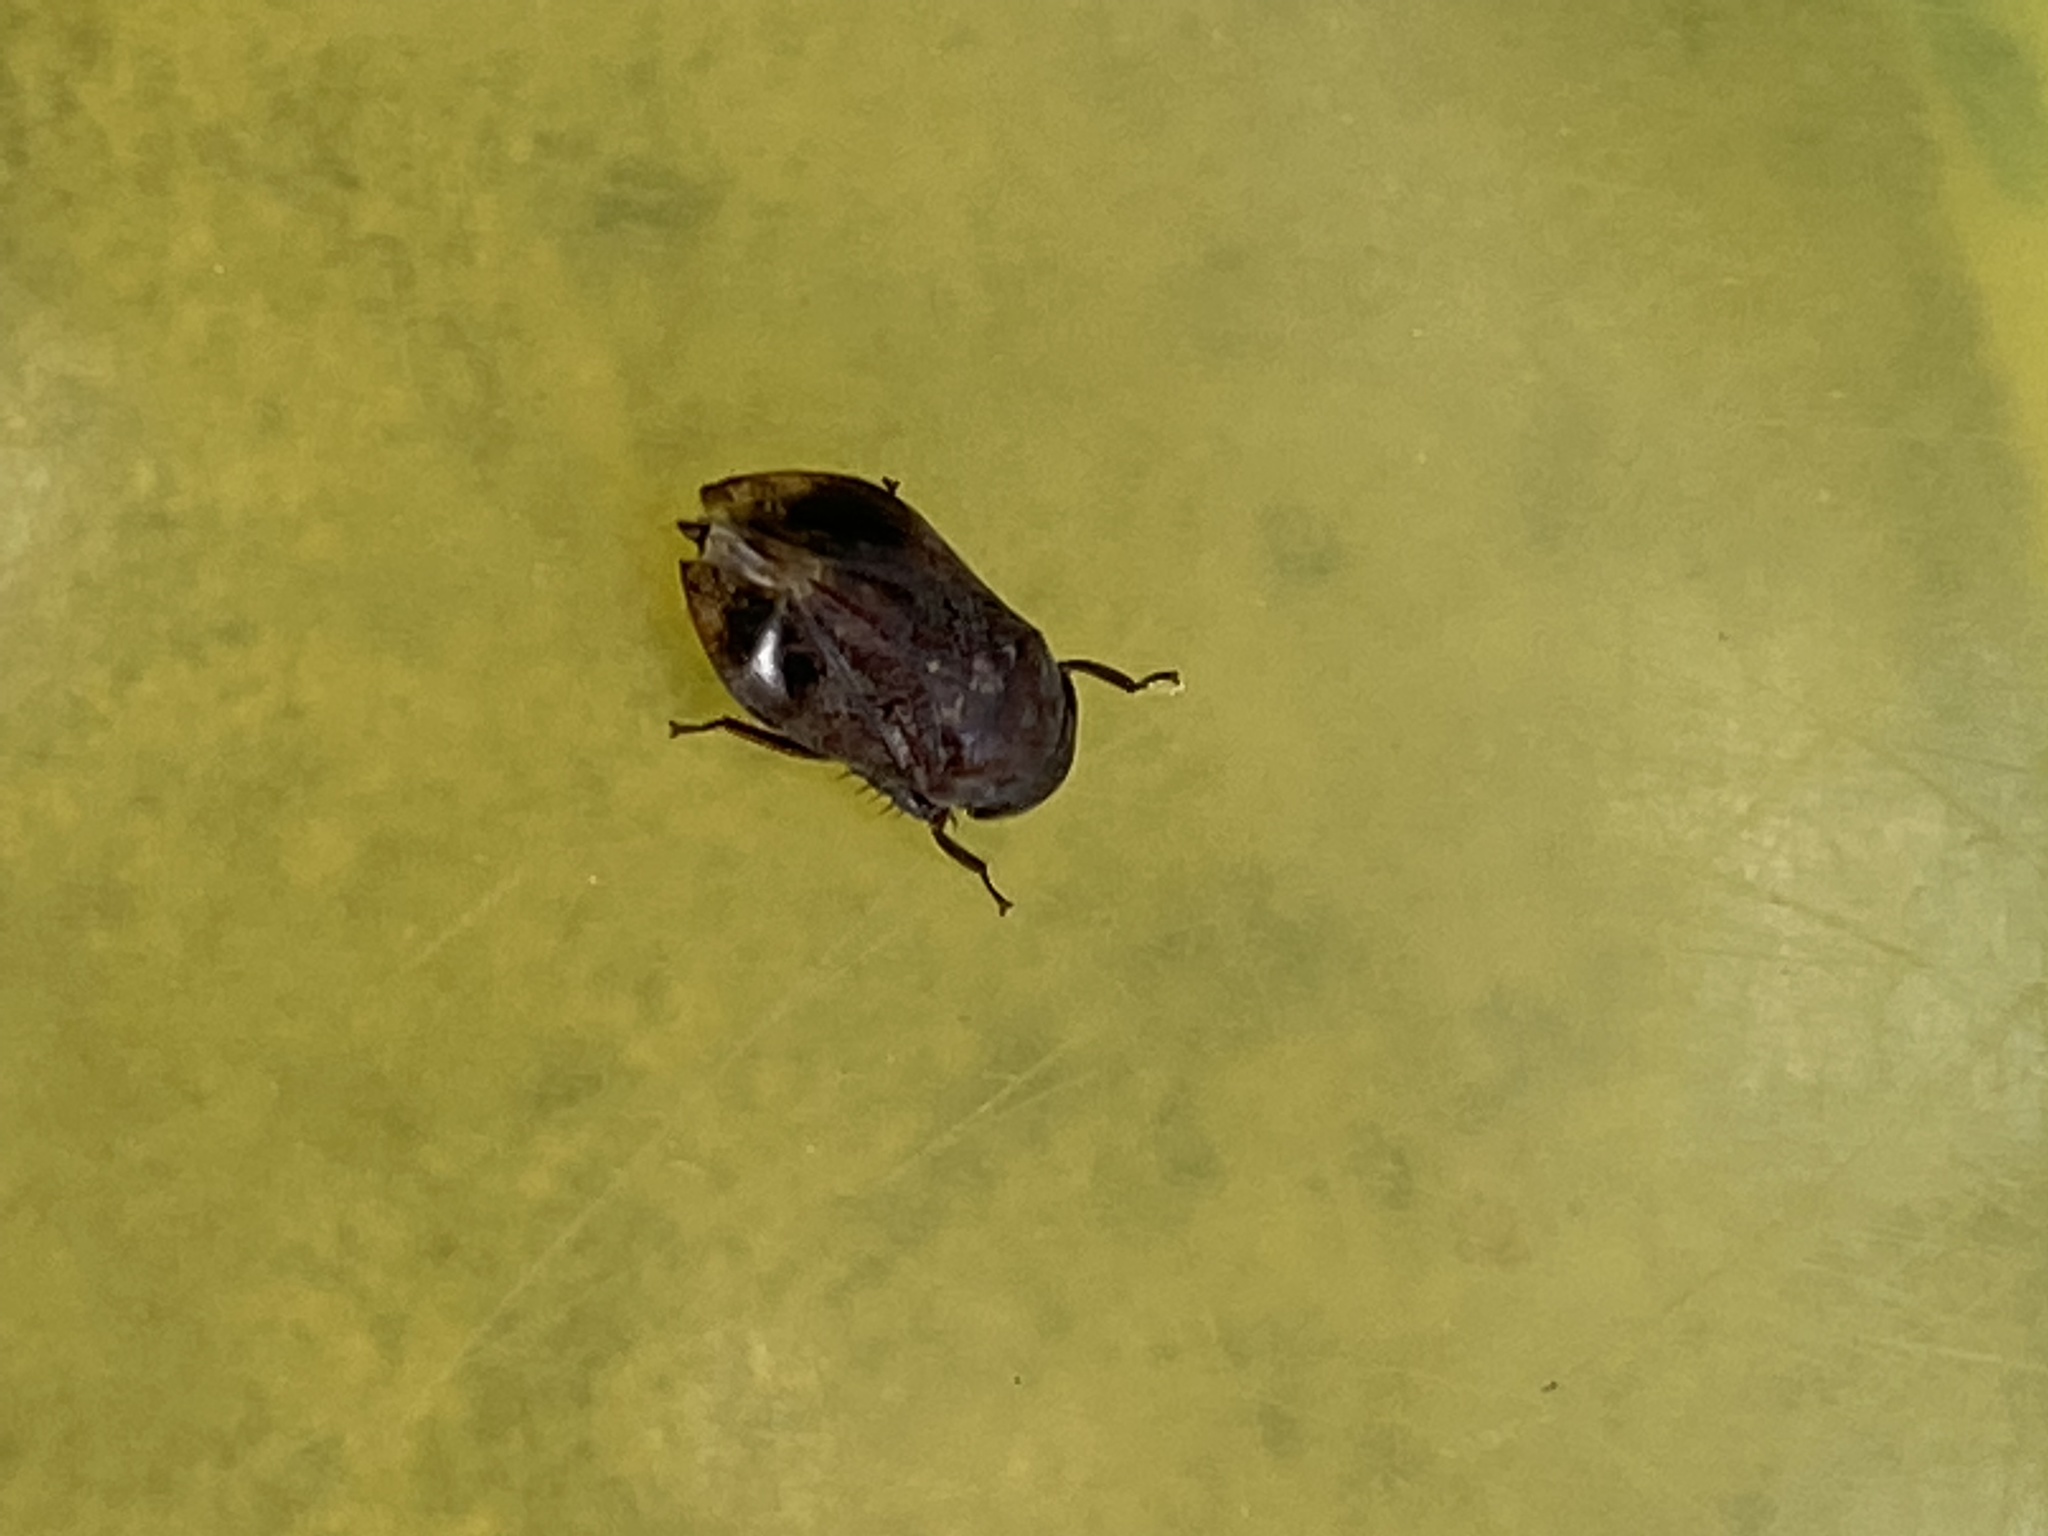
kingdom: Animalia
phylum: Arthropoda
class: Insecta
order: Hemiptera
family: Cicadellidae
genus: Penthimia
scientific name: Penthimia americana
